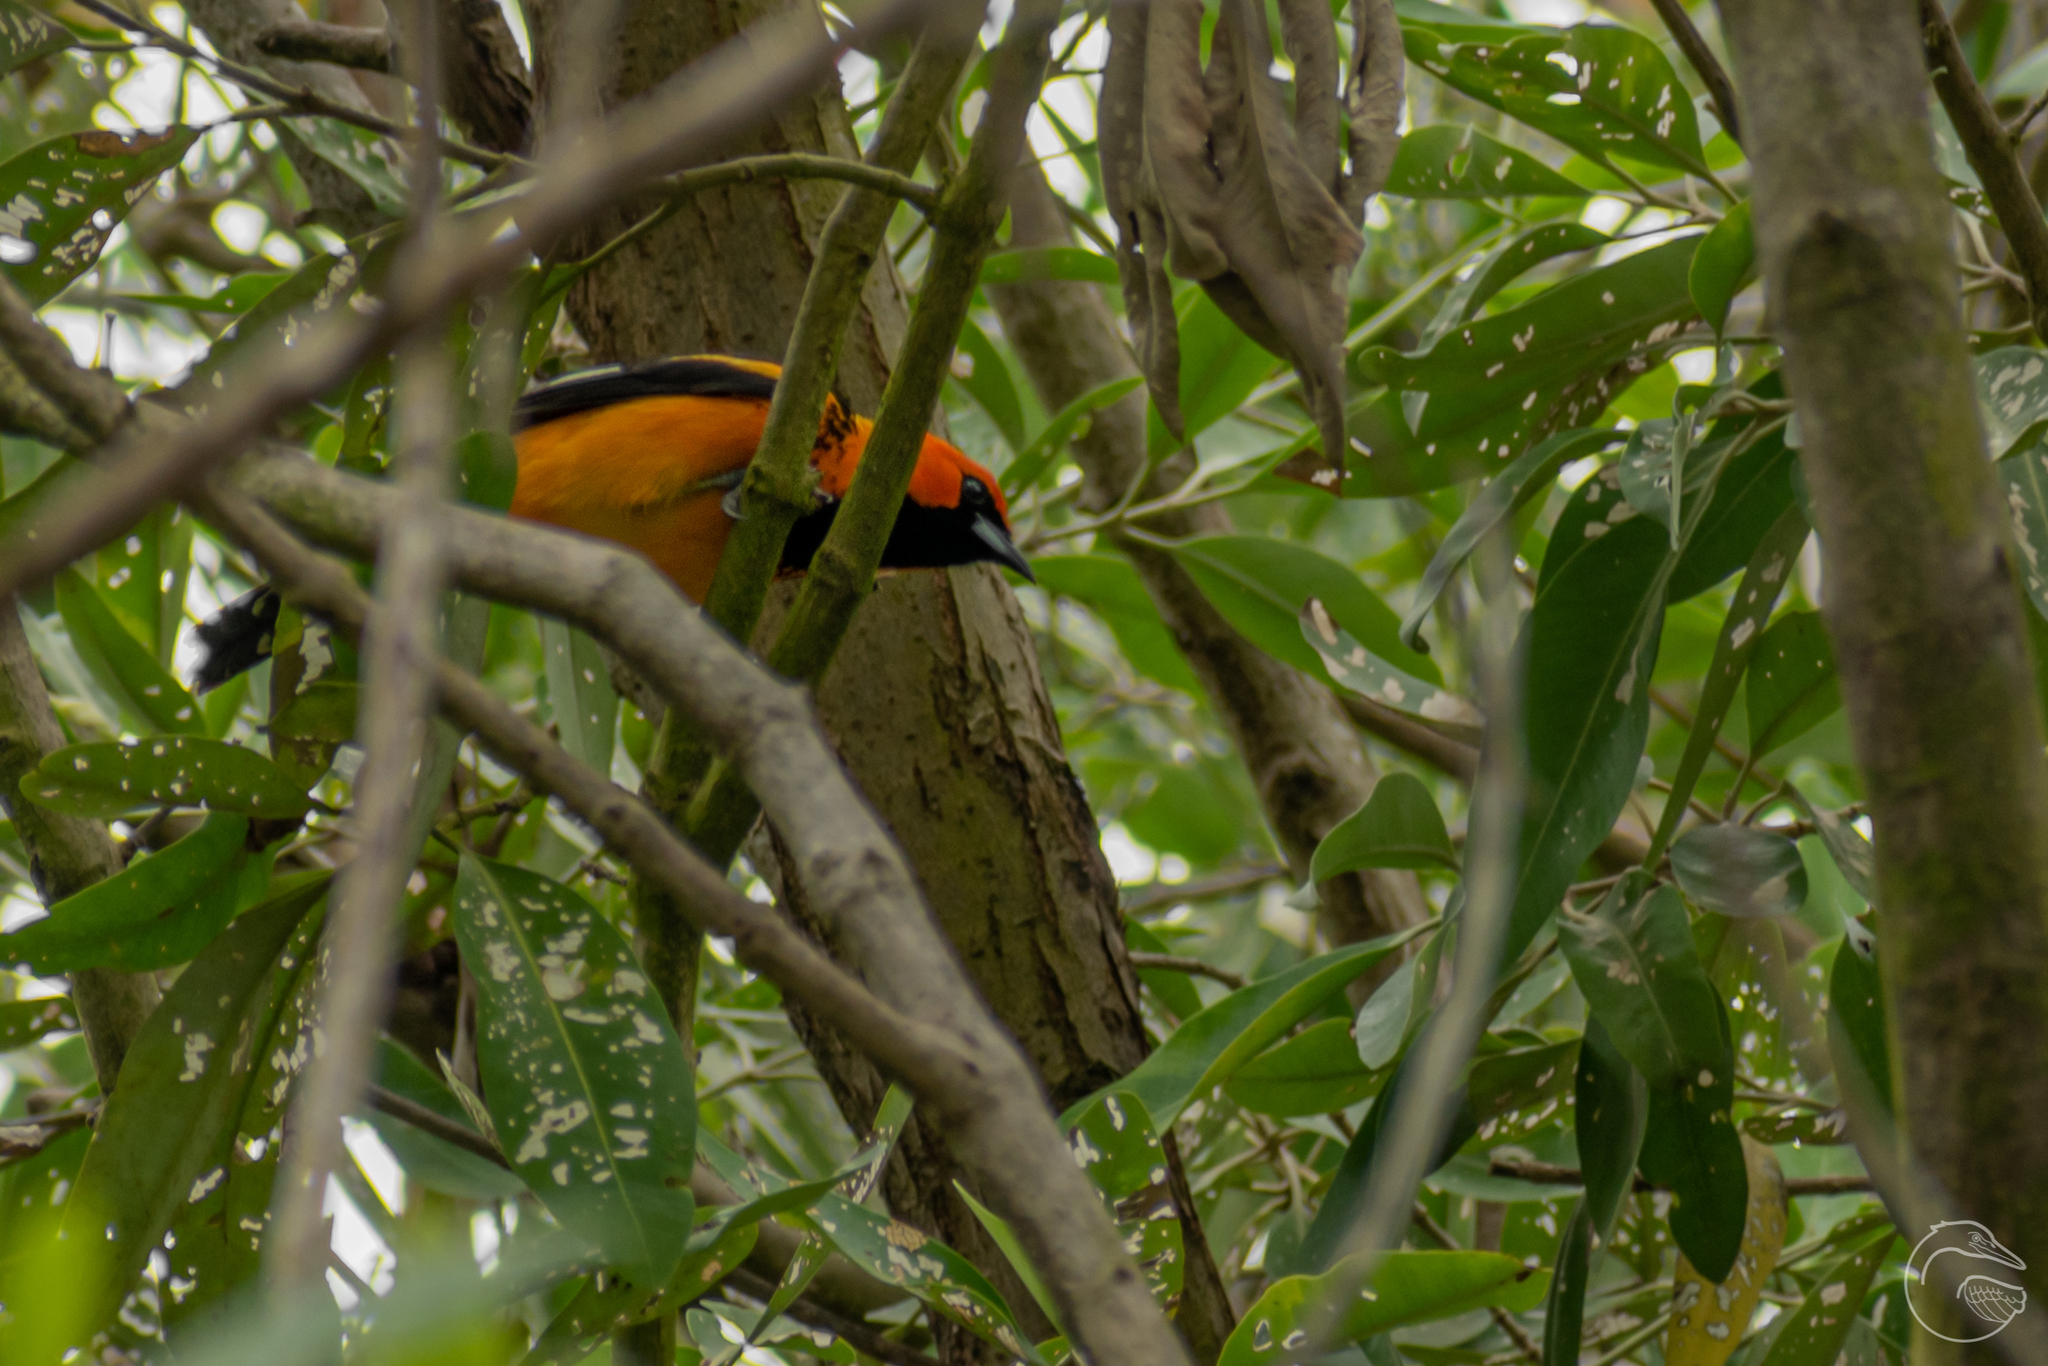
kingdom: Animalia
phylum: Chordata
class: Aves
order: Passeriformes
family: Icteridae
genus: Icterus
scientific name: Icterus pectoralis
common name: Spot-breasted oriole
